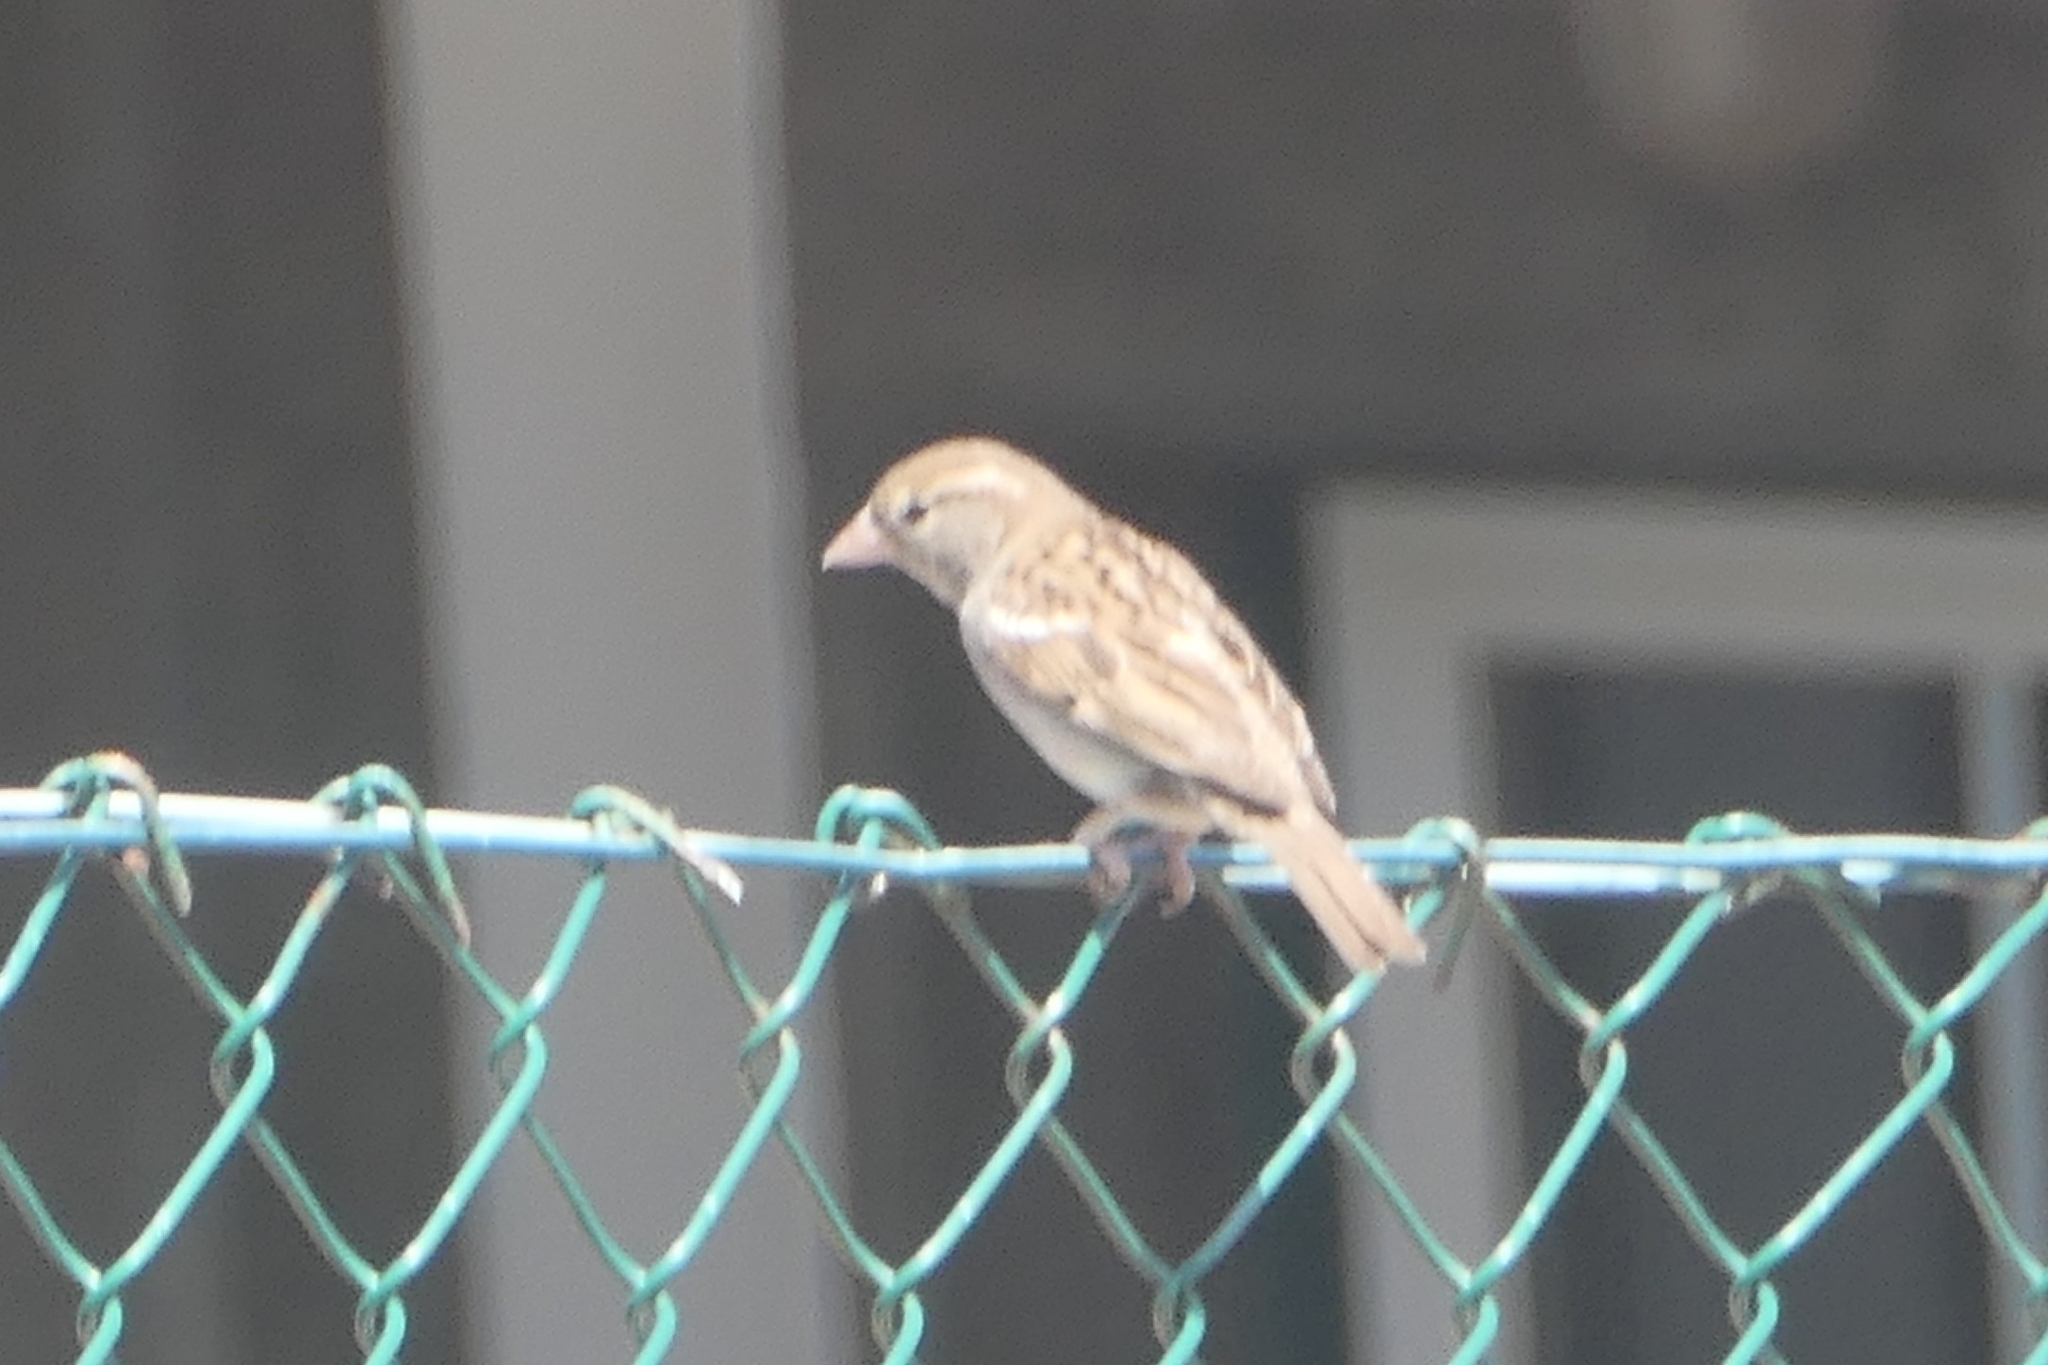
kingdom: Animalia
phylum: Chordata
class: Aves
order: Passeriformes
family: Passeridae
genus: Passer
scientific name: Passer domesticus
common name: House sparrow
